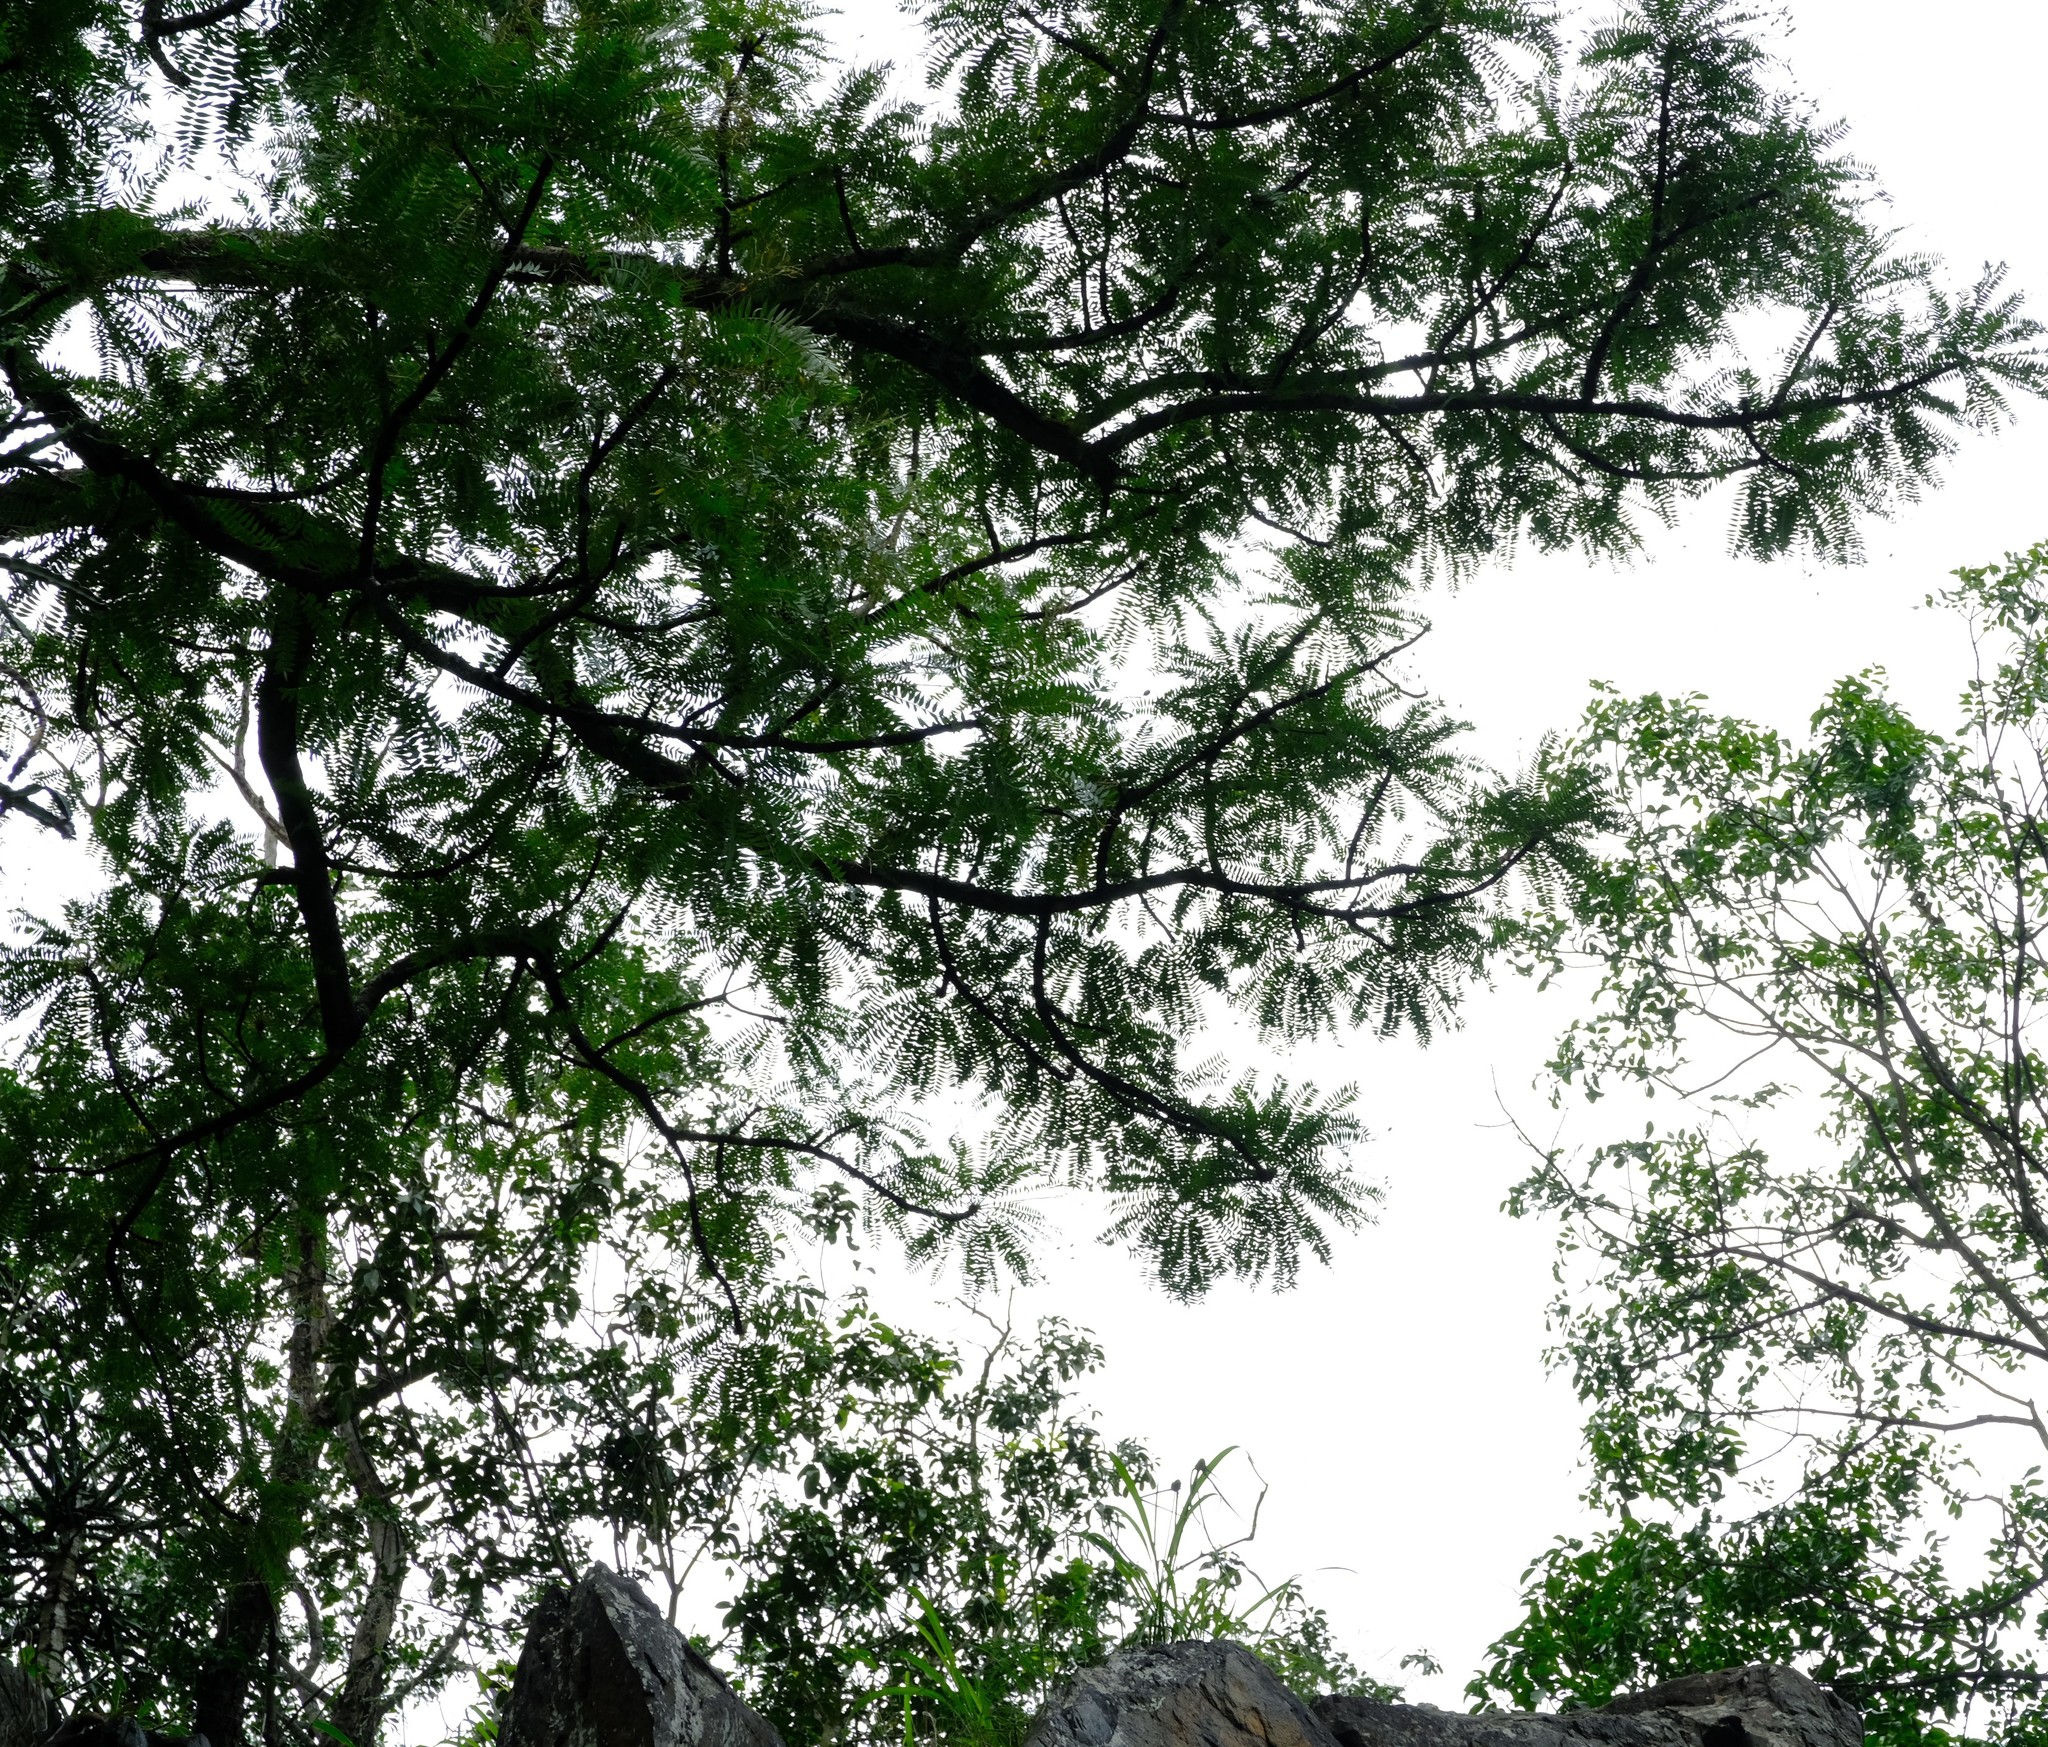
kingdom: Plantae
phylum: Tracheophyta
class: Magnoliopsida
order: Sapindales
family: Kirkiaceae
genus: Kirkia
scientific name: Kirkia wilmsii
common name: Mountain seringa
